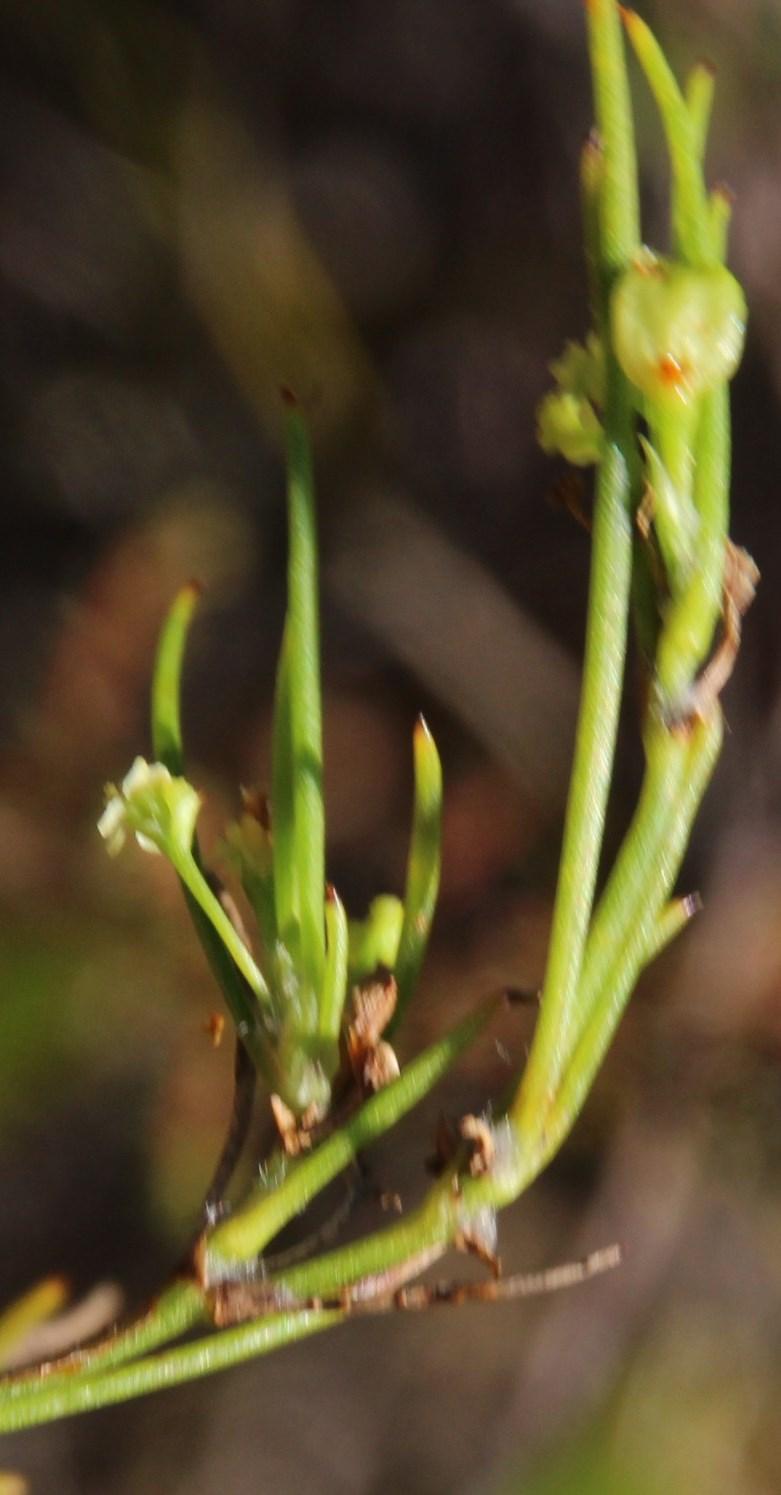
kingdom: Plantae
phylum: Tracheophyta
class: Magnoliopsida
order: Apiales
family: Apiaceae
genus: Centella
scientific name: Centella virgata
